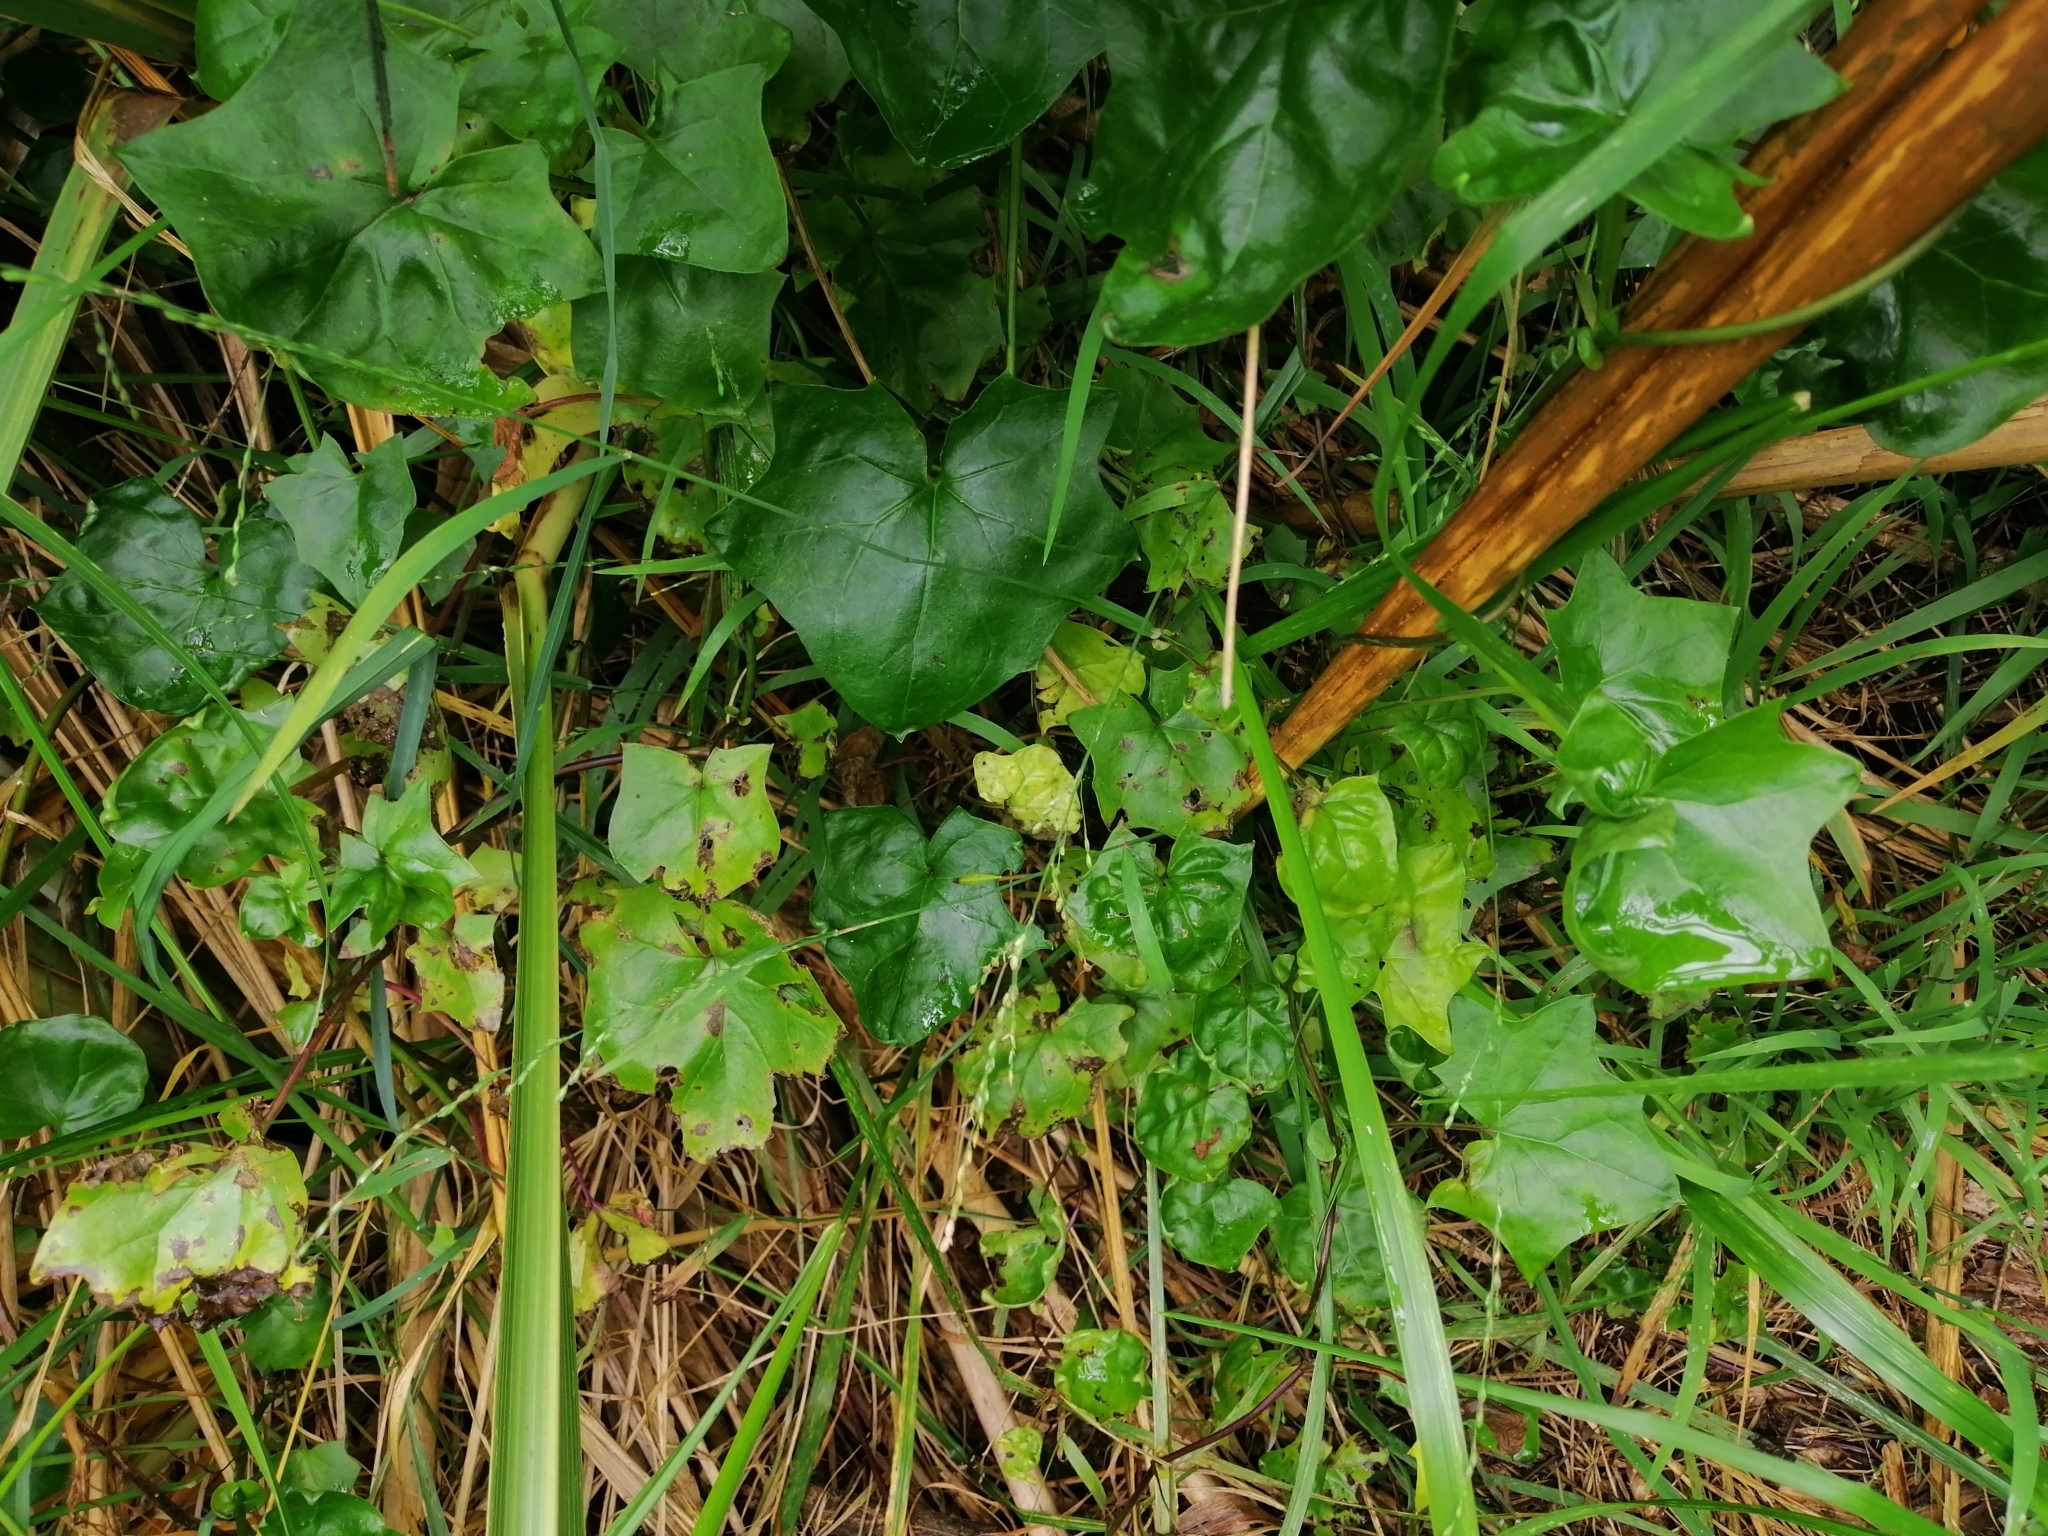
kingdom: Plantae
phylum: Tracheophyta
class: Magnoliopsida
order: Asterales
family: Asteraceae
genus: Delairea
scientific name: Delairea odorata
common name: Cape-ivy
